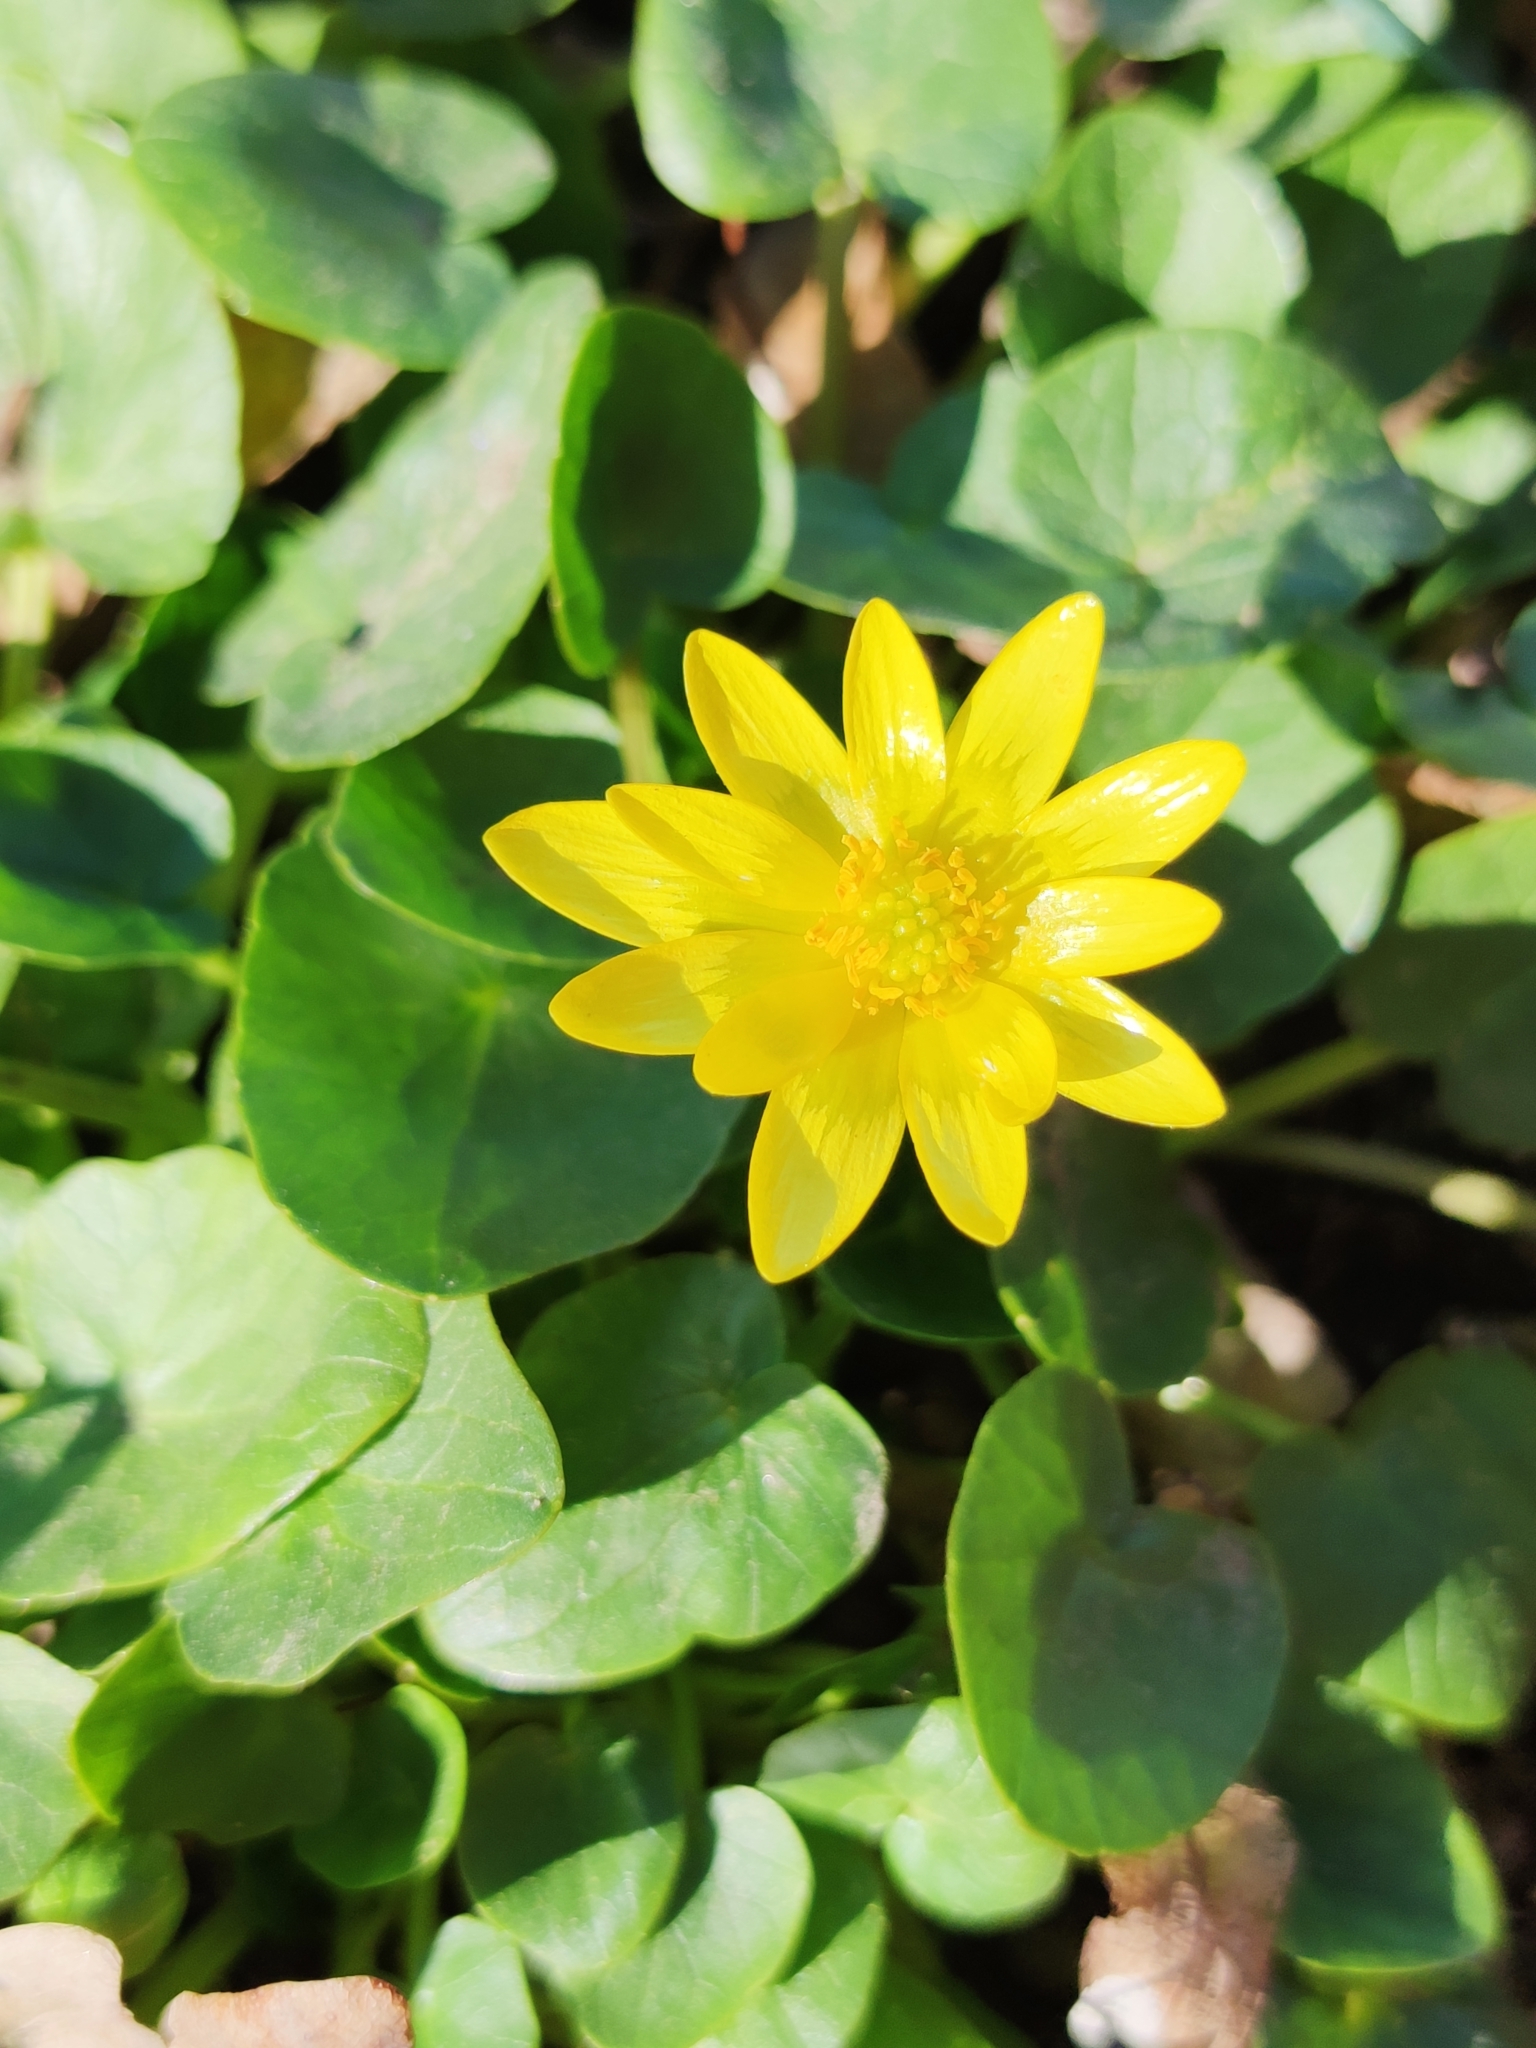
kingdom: Plantae
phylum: Tracheophyta
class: Magnoliopsida
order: Ranunculales
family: Ranunculaceae
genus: Ficaria
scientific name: Ficaria verna
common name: Lesser celandine
